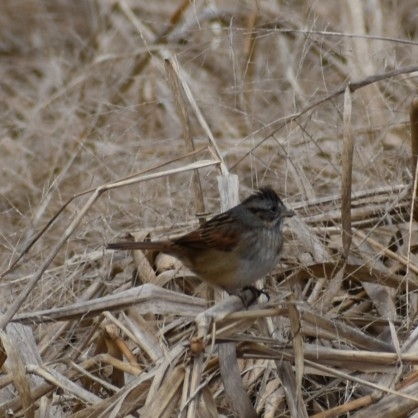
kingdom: Animalia
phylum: Chordata
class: Aves
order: Passeriformes
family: Passerellidae
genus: Melospiza
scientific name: Melospiza georgiana
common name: Swamp sparrow
